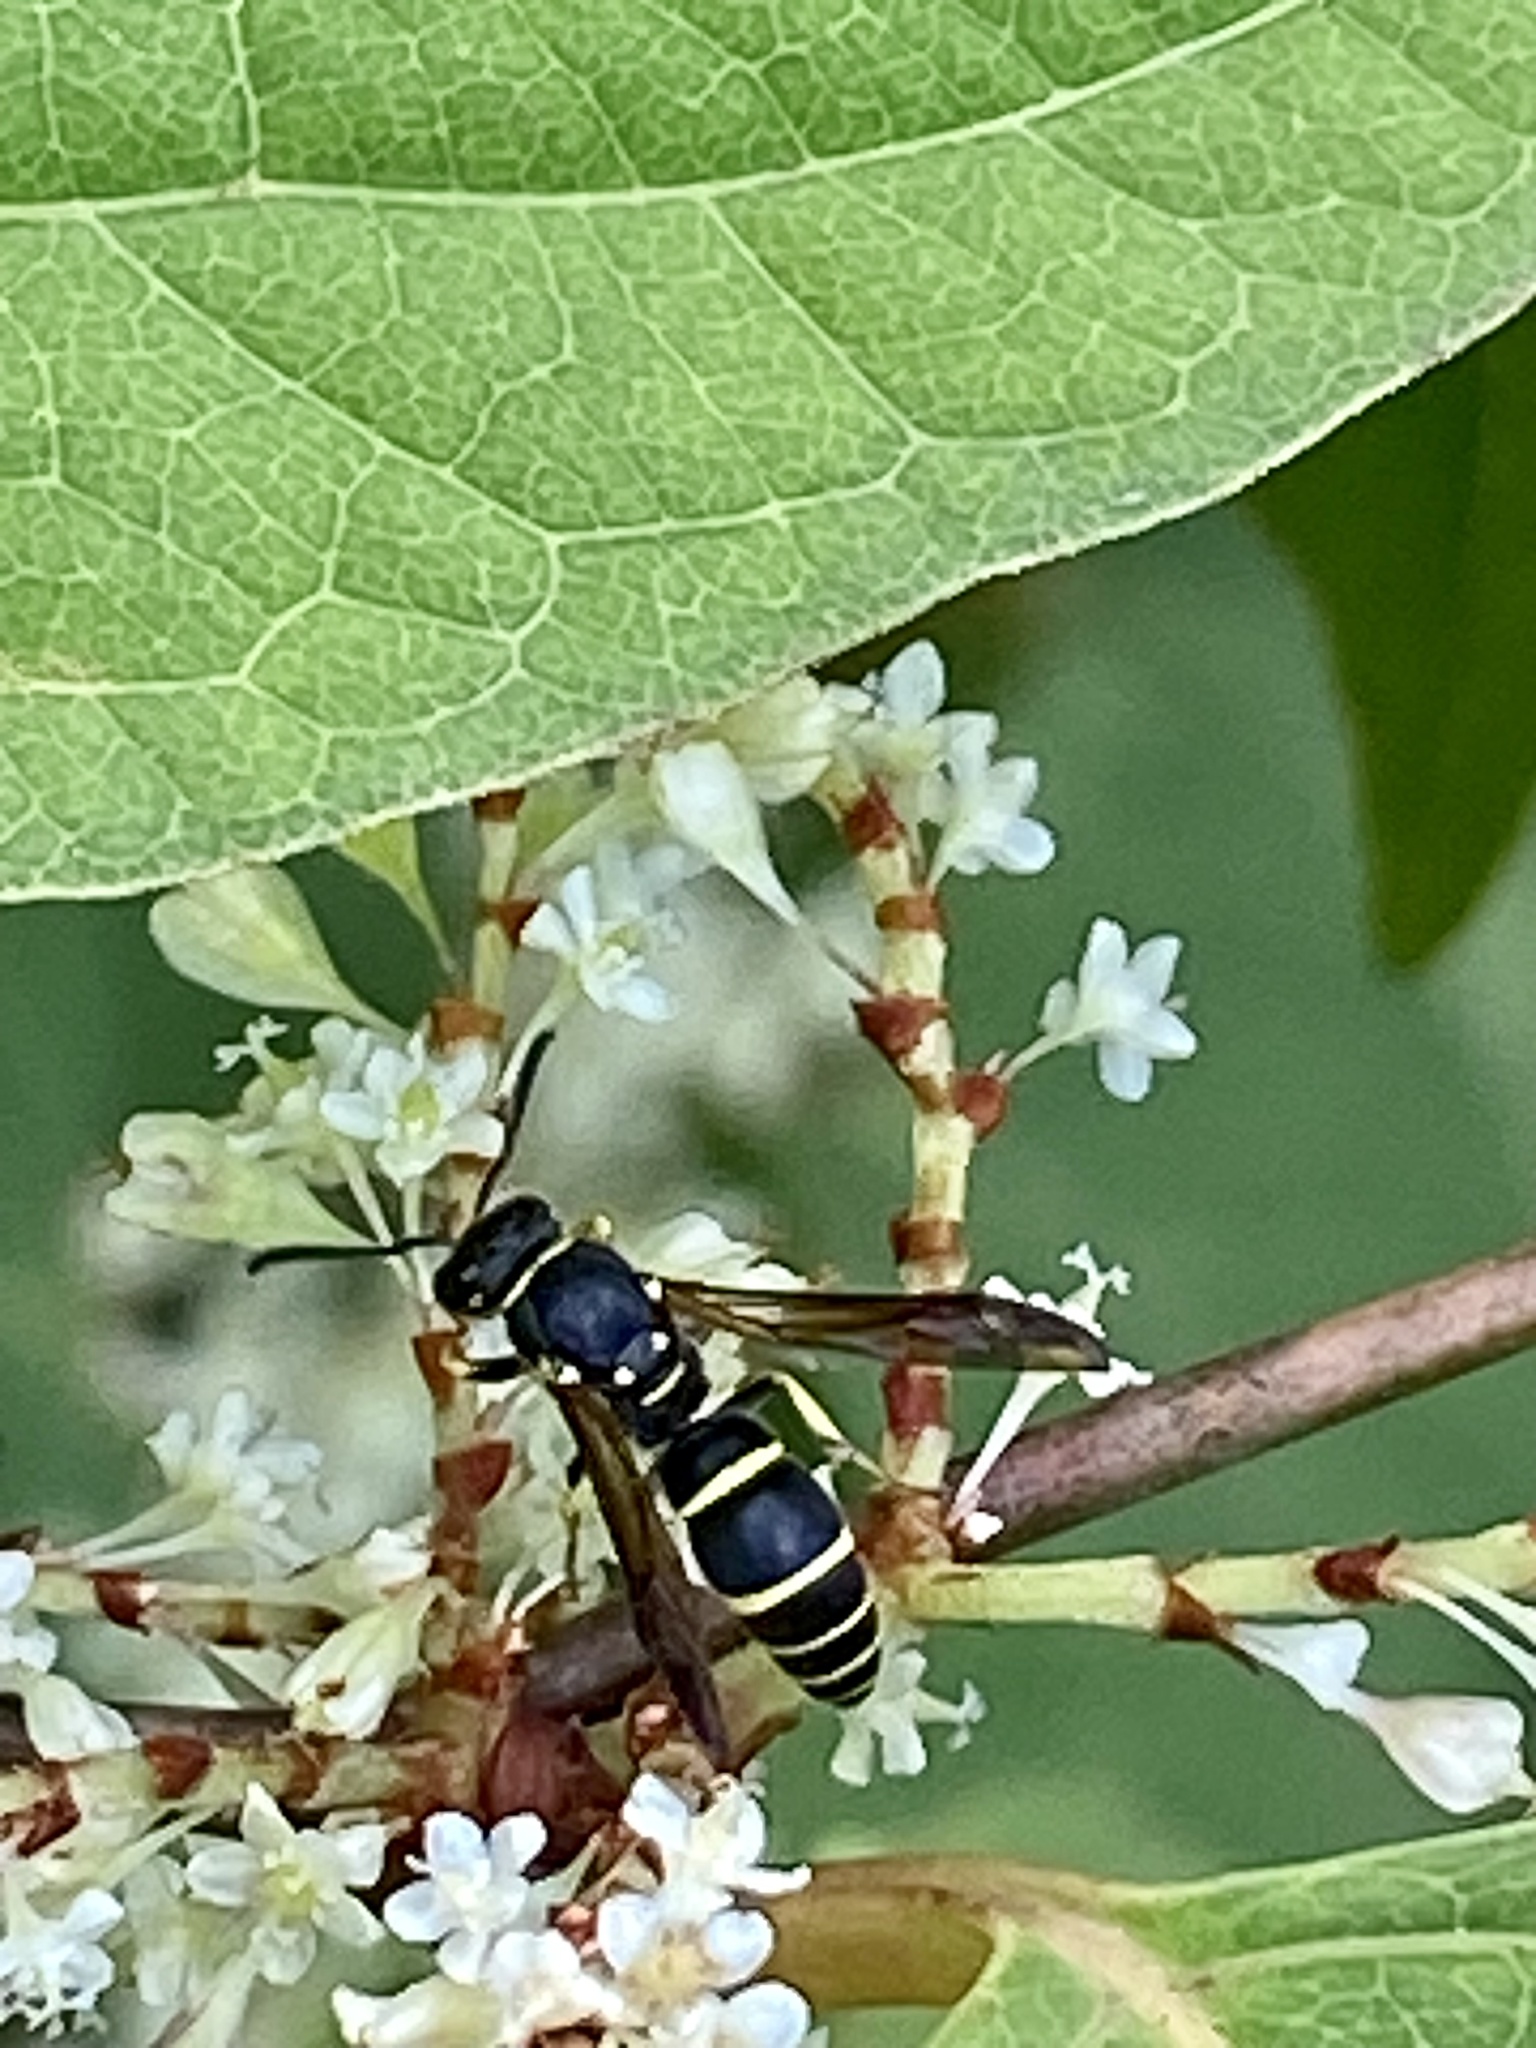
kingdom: Animalia
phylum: Arthropoda
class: Insecta
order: Hymenoptera
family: Vespidae
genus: Ancistrocerus
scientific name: Ancistrocerus adiabatus
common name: Bramble mason wasp
